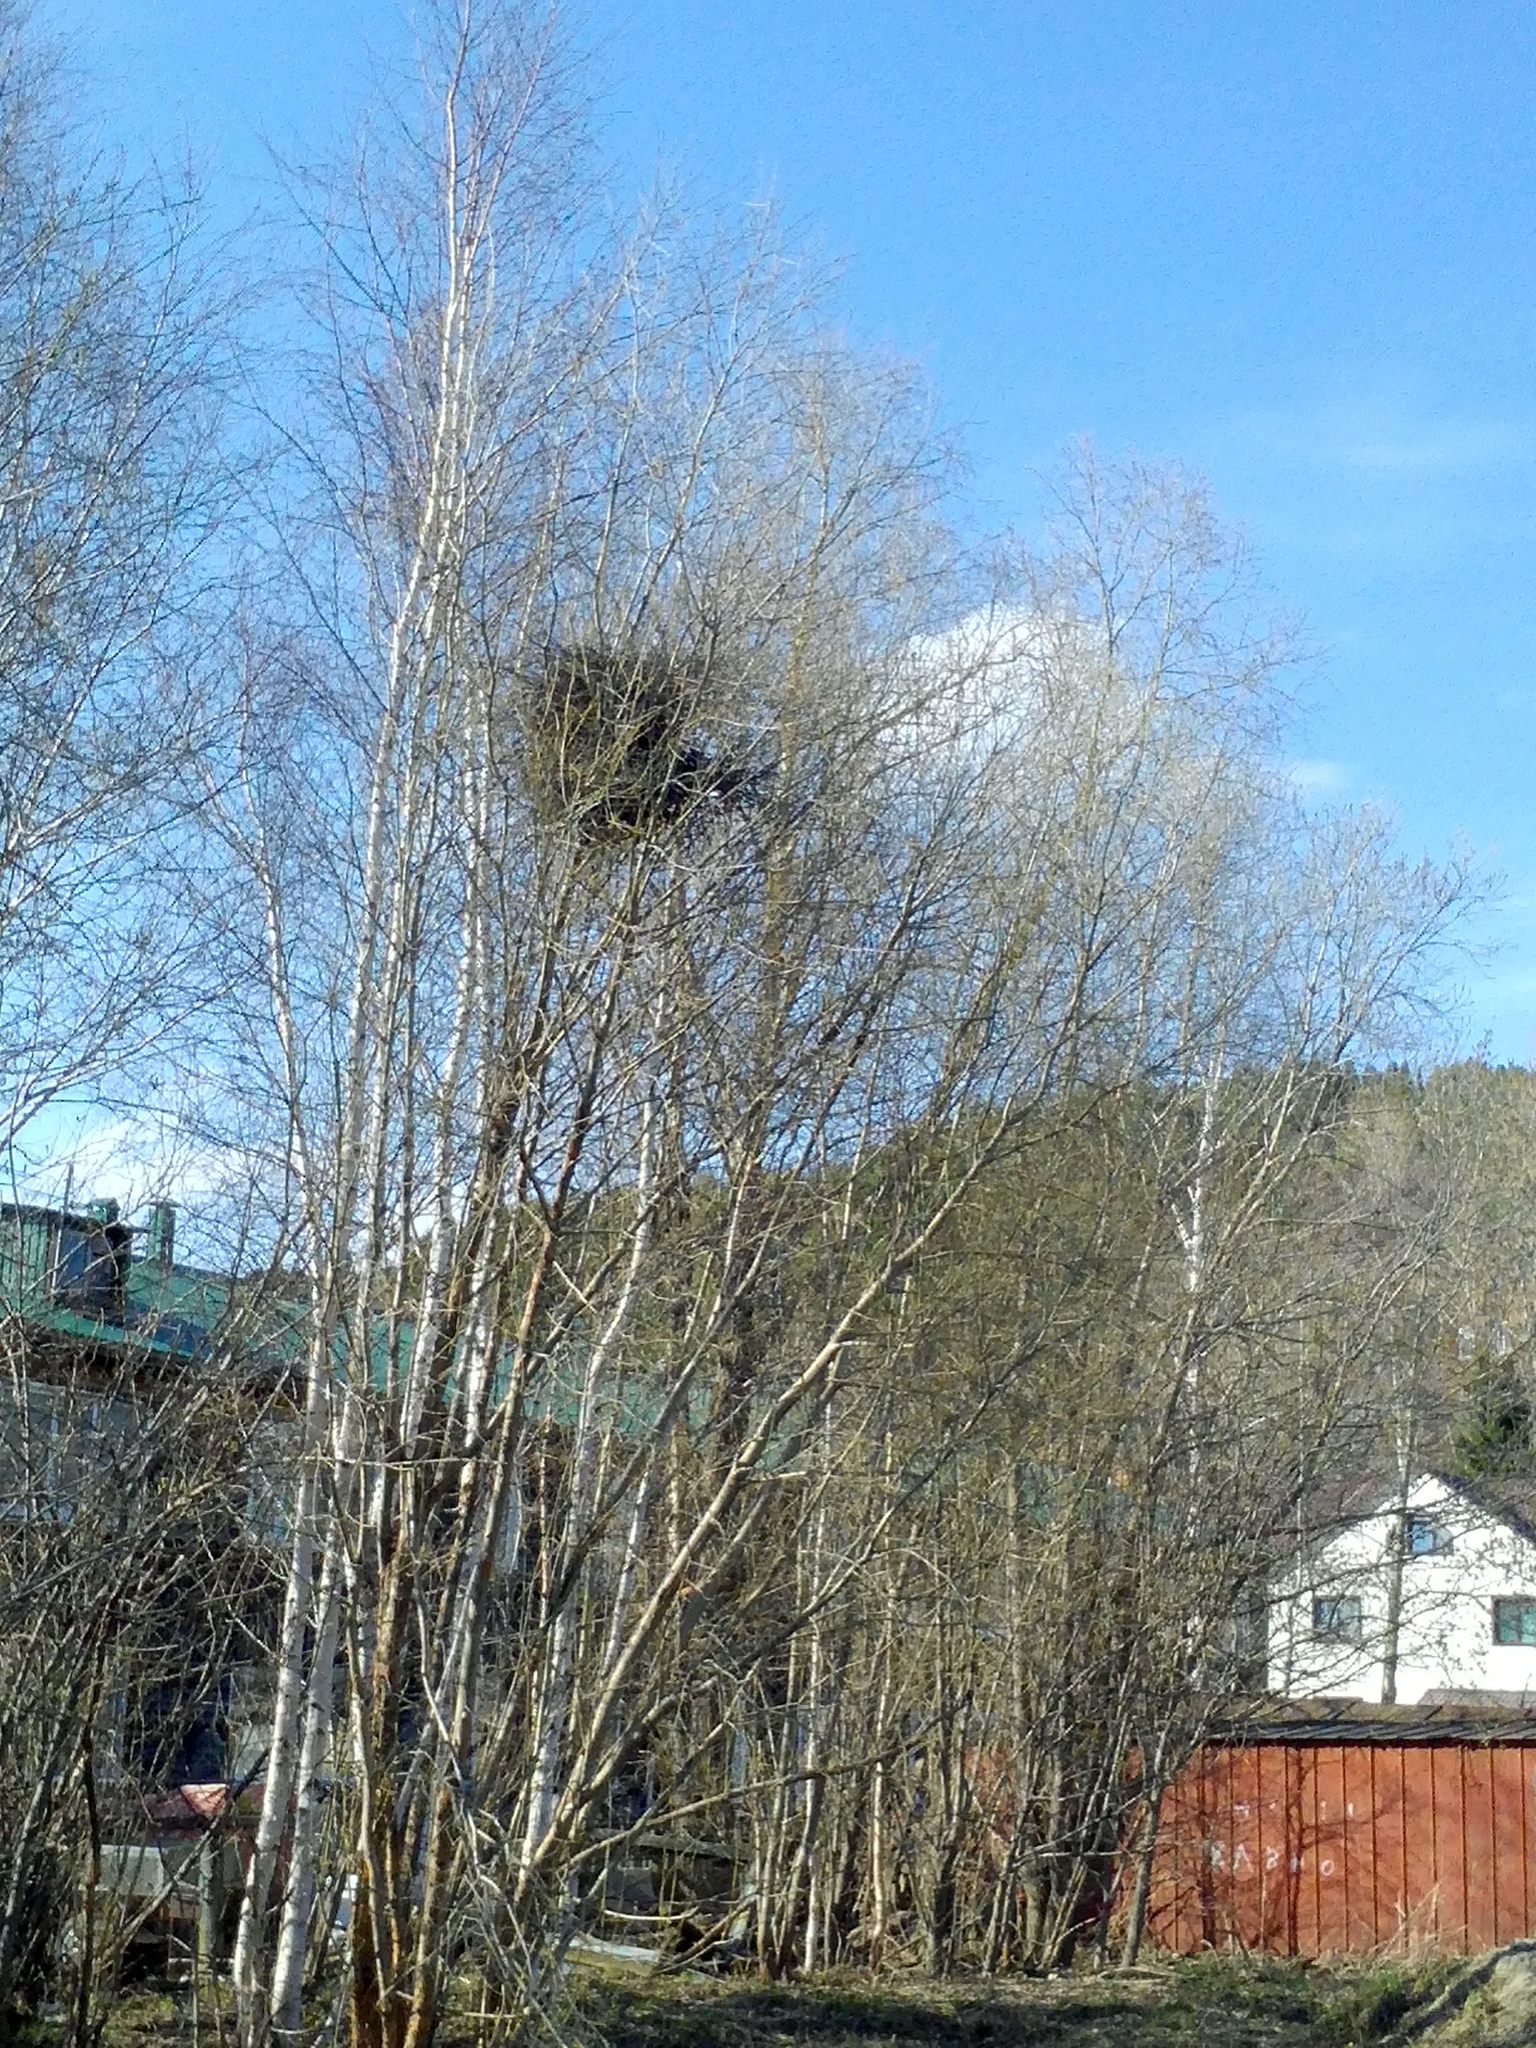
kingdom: Plantae
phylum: Tracheophyta
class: Magnoliopsida
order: Fagales
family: Betulaceae
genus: Betula
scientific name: Betula pendula
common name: Silver birch
